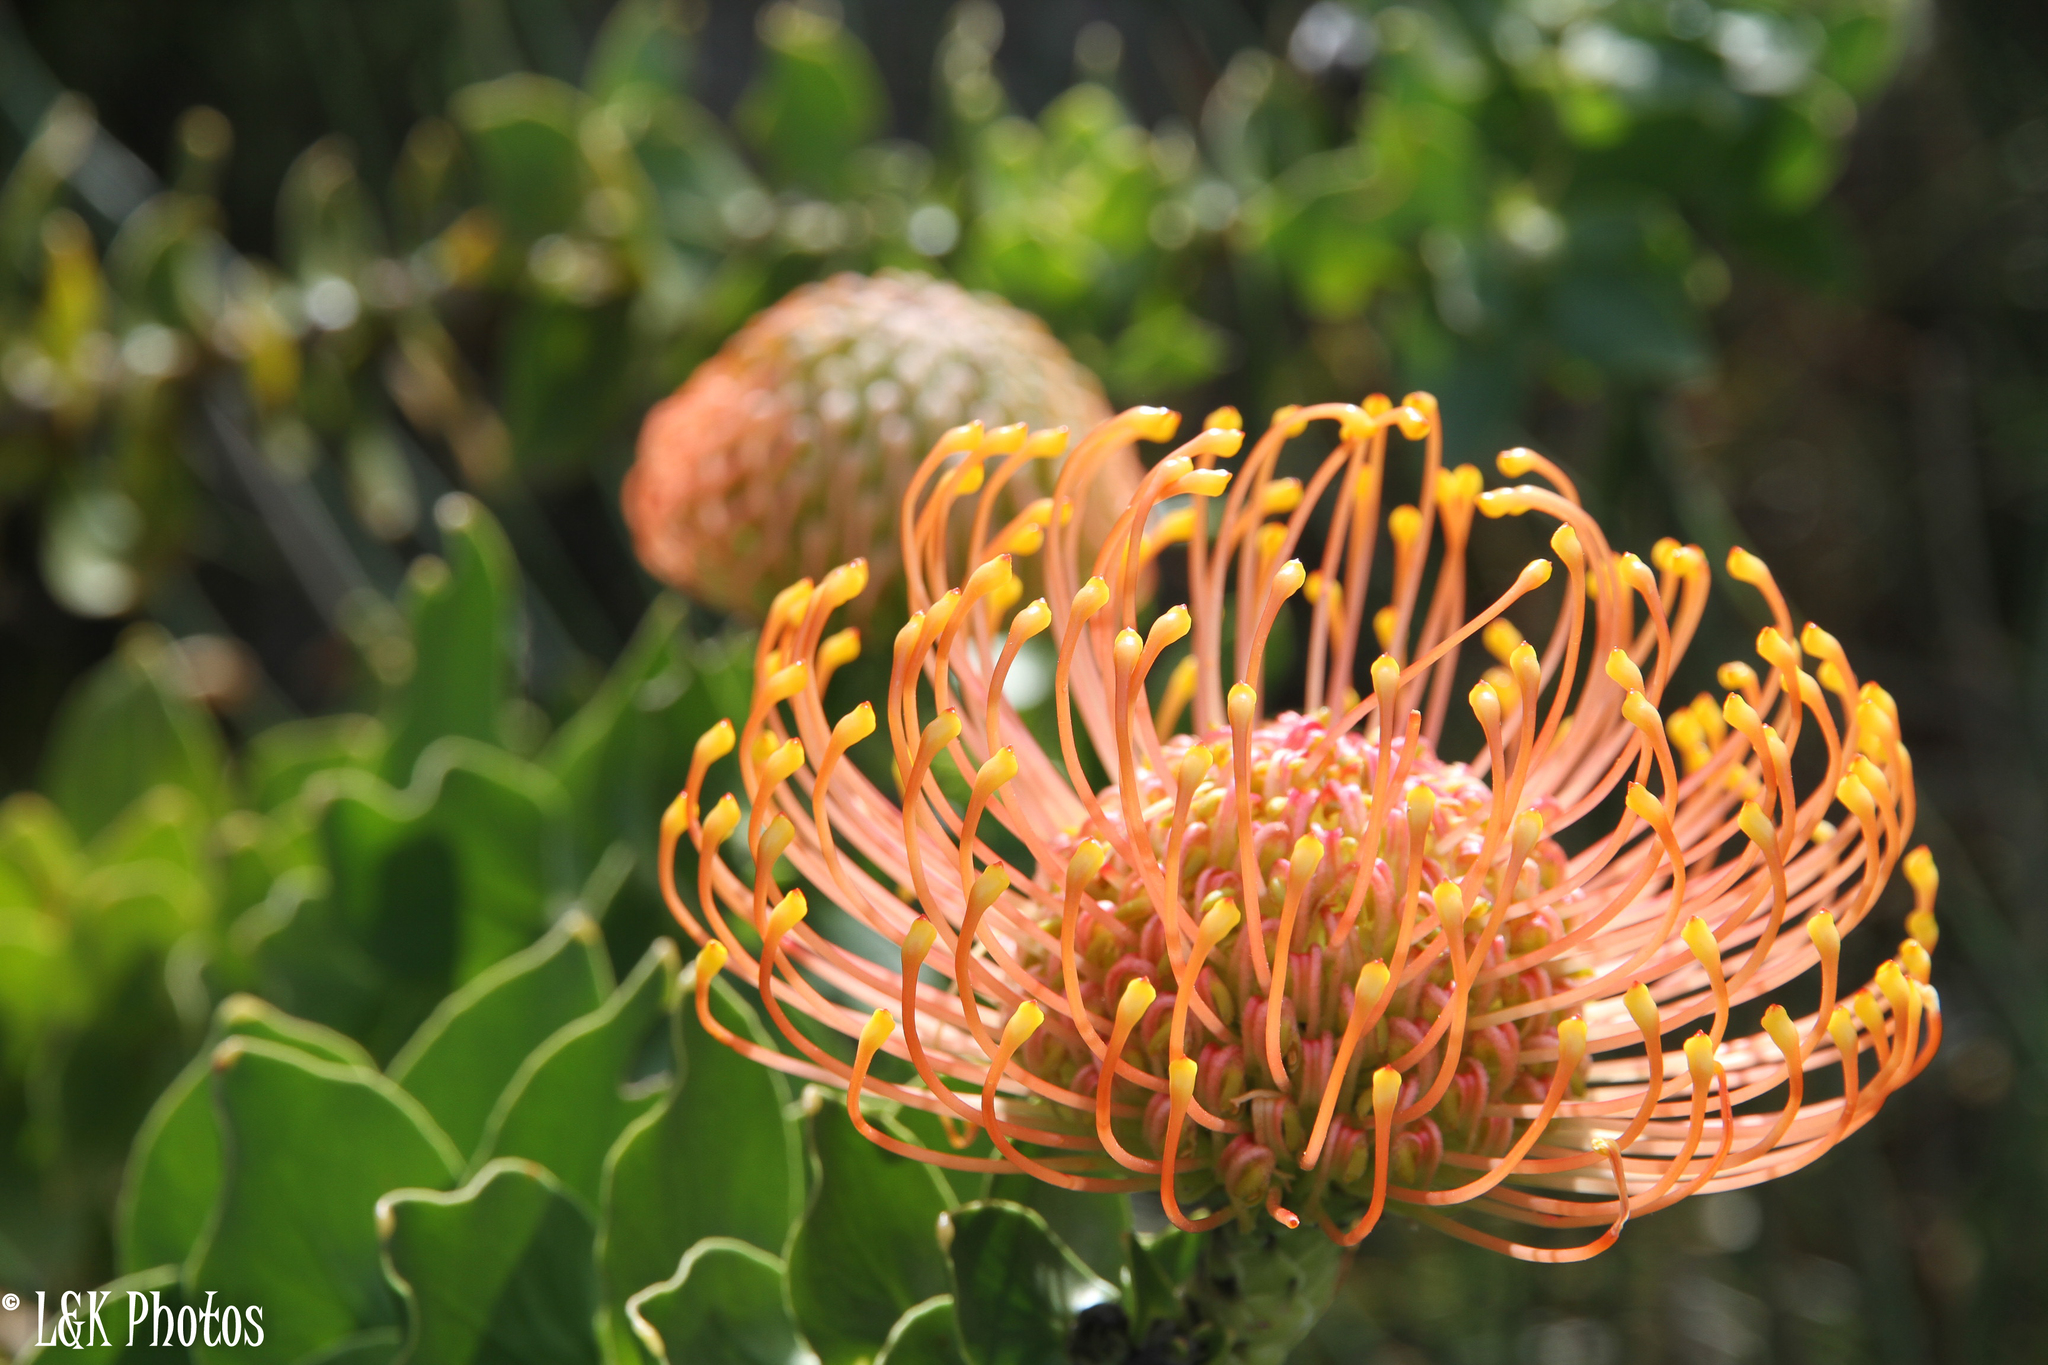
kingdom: Plantae
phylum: Tracheophyta
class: Magnoliopsida
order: Proteales
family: Proteaceae
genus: Leucospermum
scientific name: Leucospermum cordifolium
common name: Red pincushion-protea
